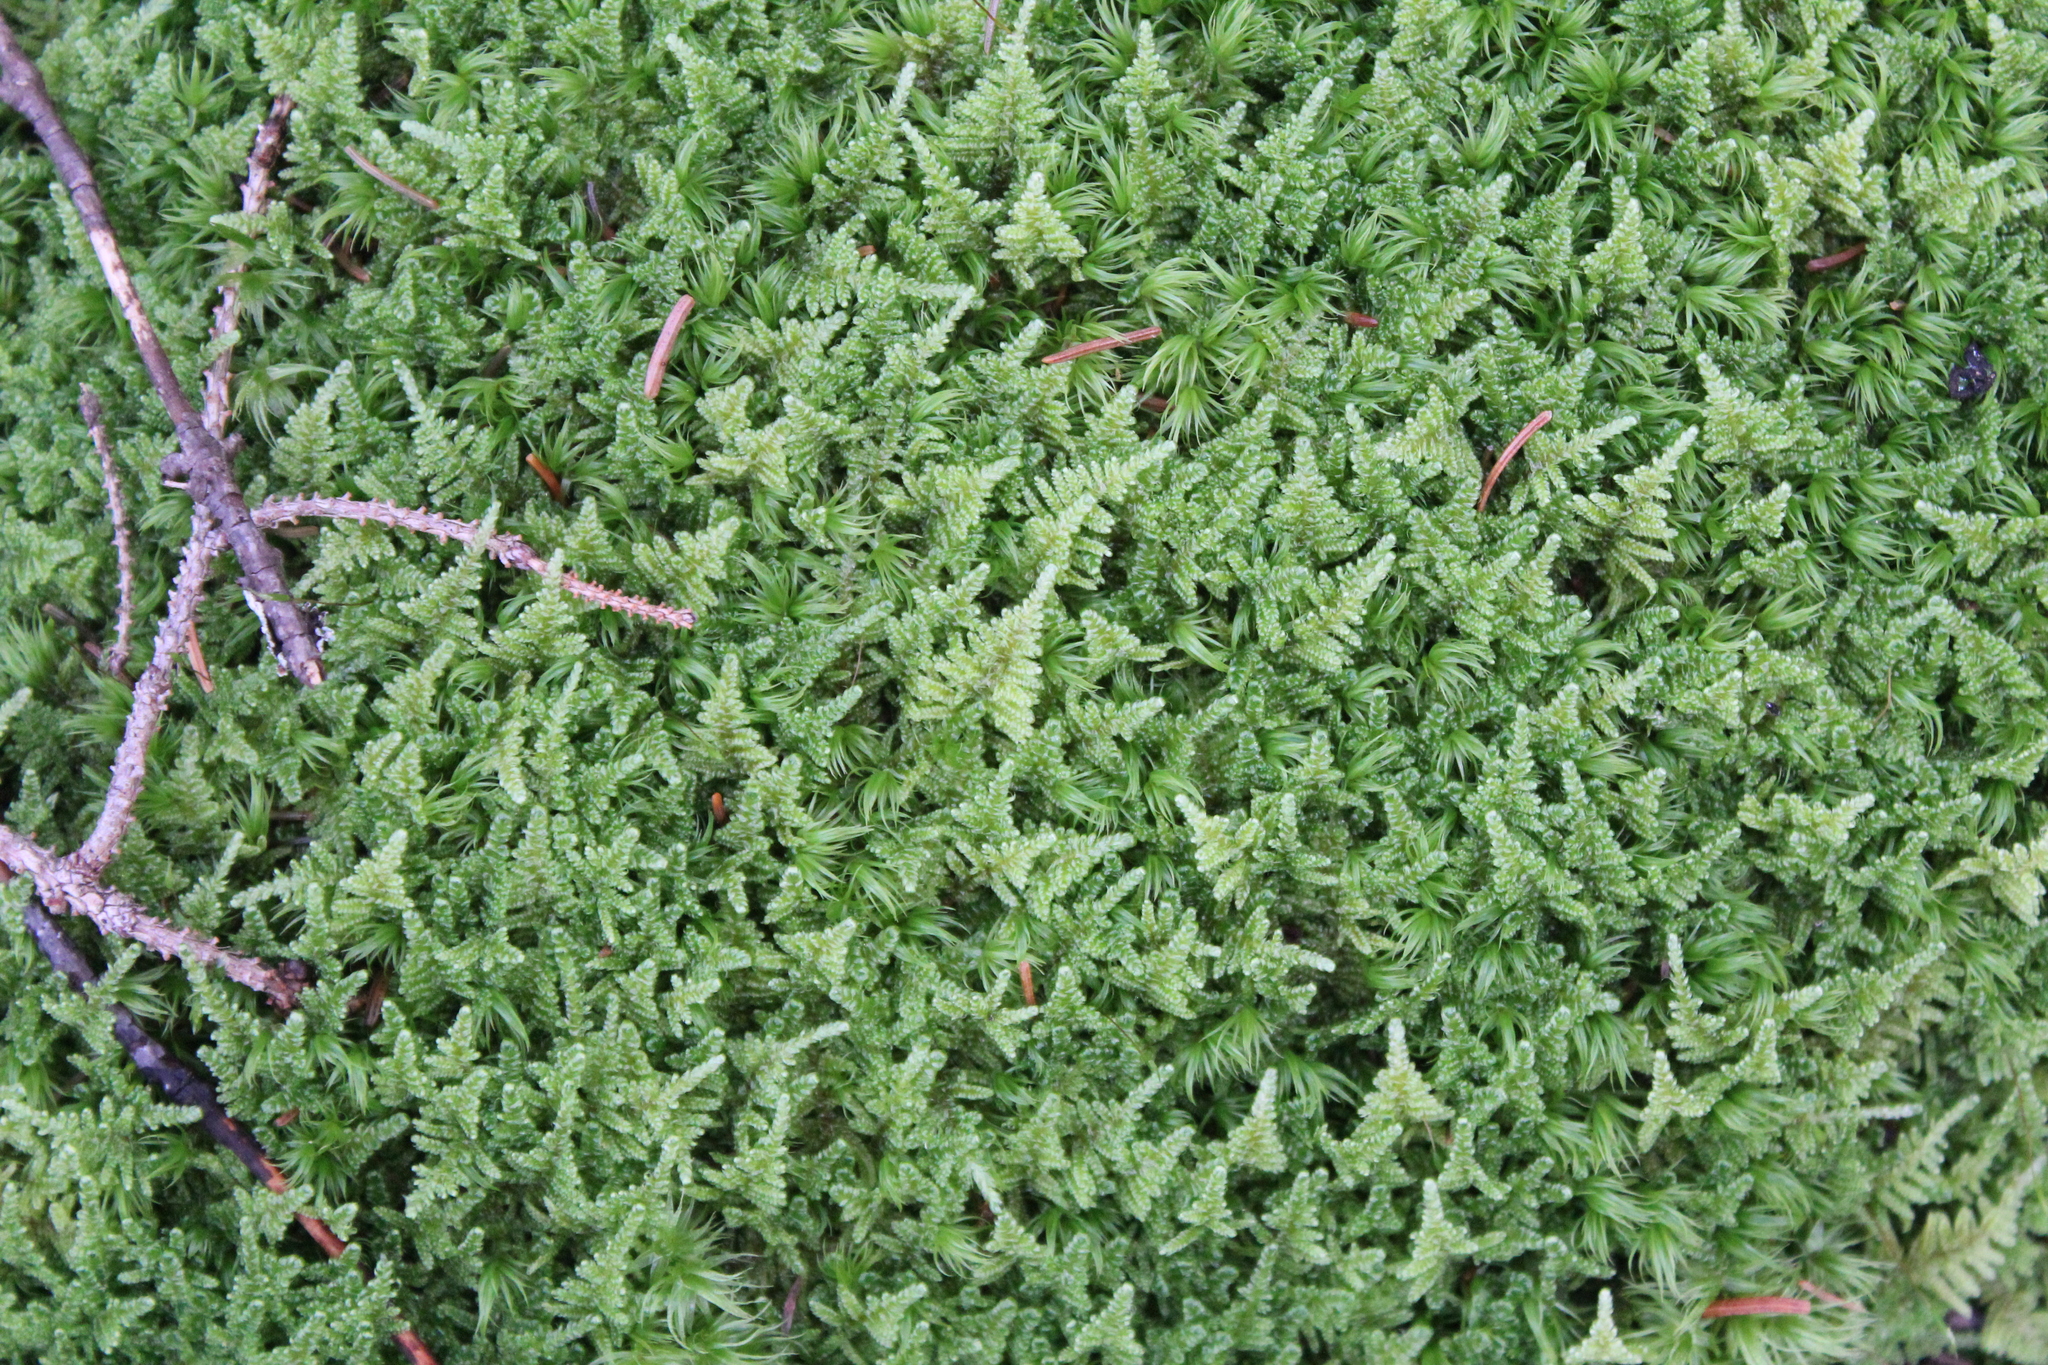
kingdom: Plantae
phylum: Bryophyta
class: Bryopsida
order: Hypnales
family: Callicladiaceae
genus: Callicladium
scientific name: Callicladium imponens
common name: Brocade moss
